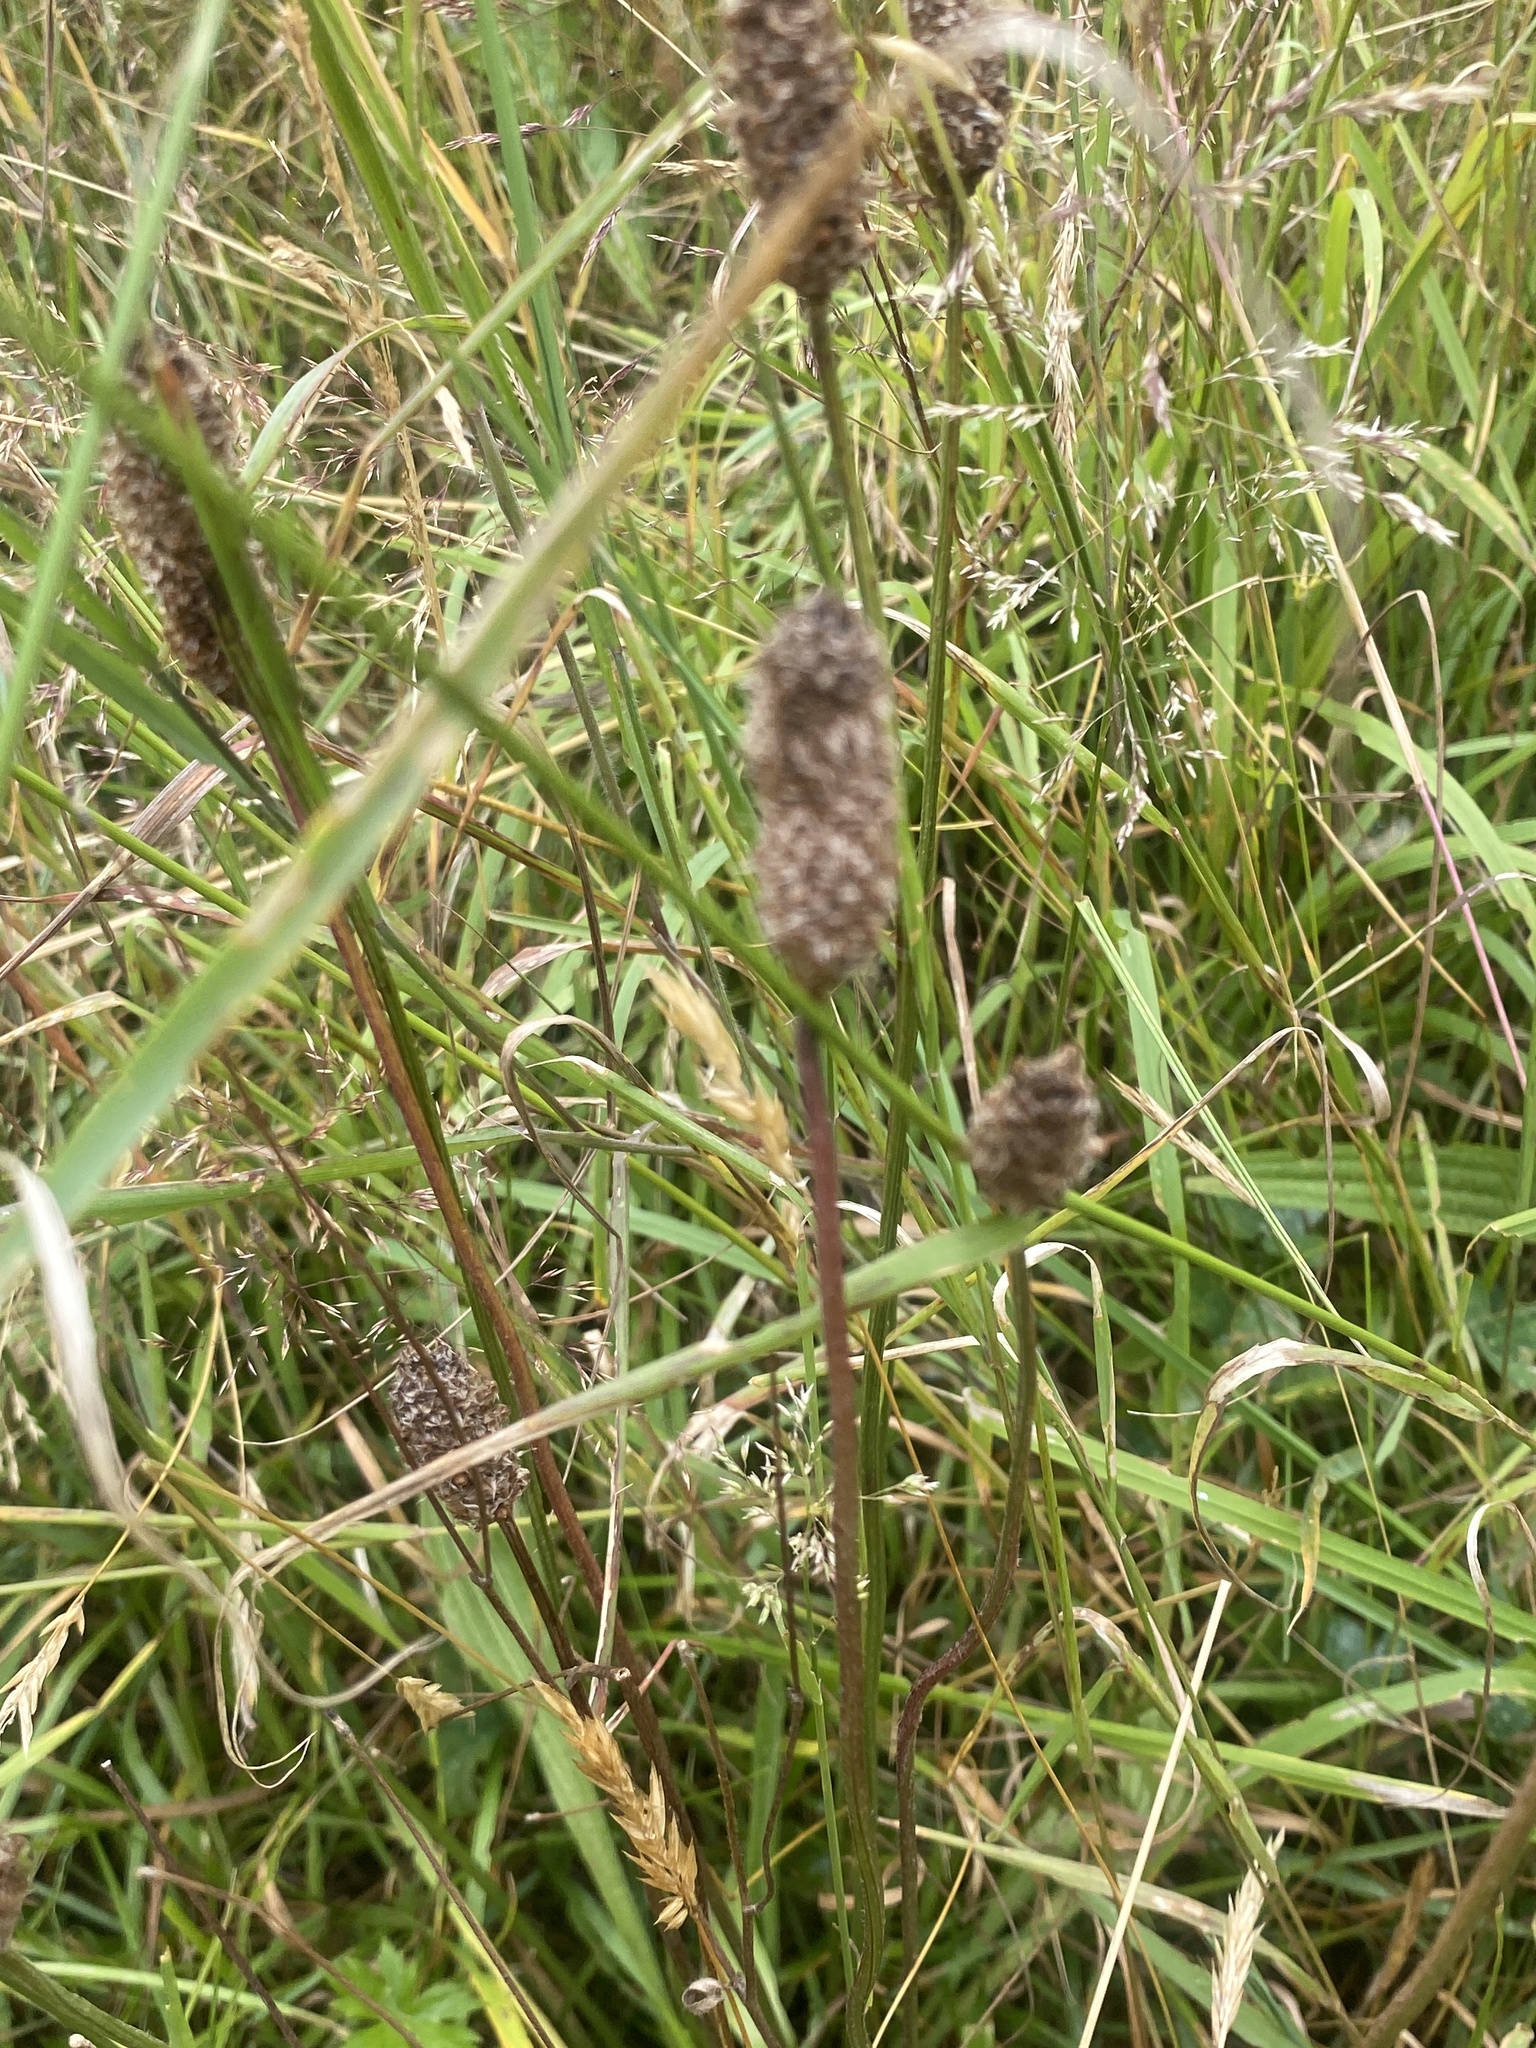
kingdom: Plantae
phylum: Tracheophyta
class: Magnoliopsida
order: Lamiales
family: Plantaginaceae
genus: Plantago
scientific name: Plantago lanceolata
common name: Ribwort plantain
